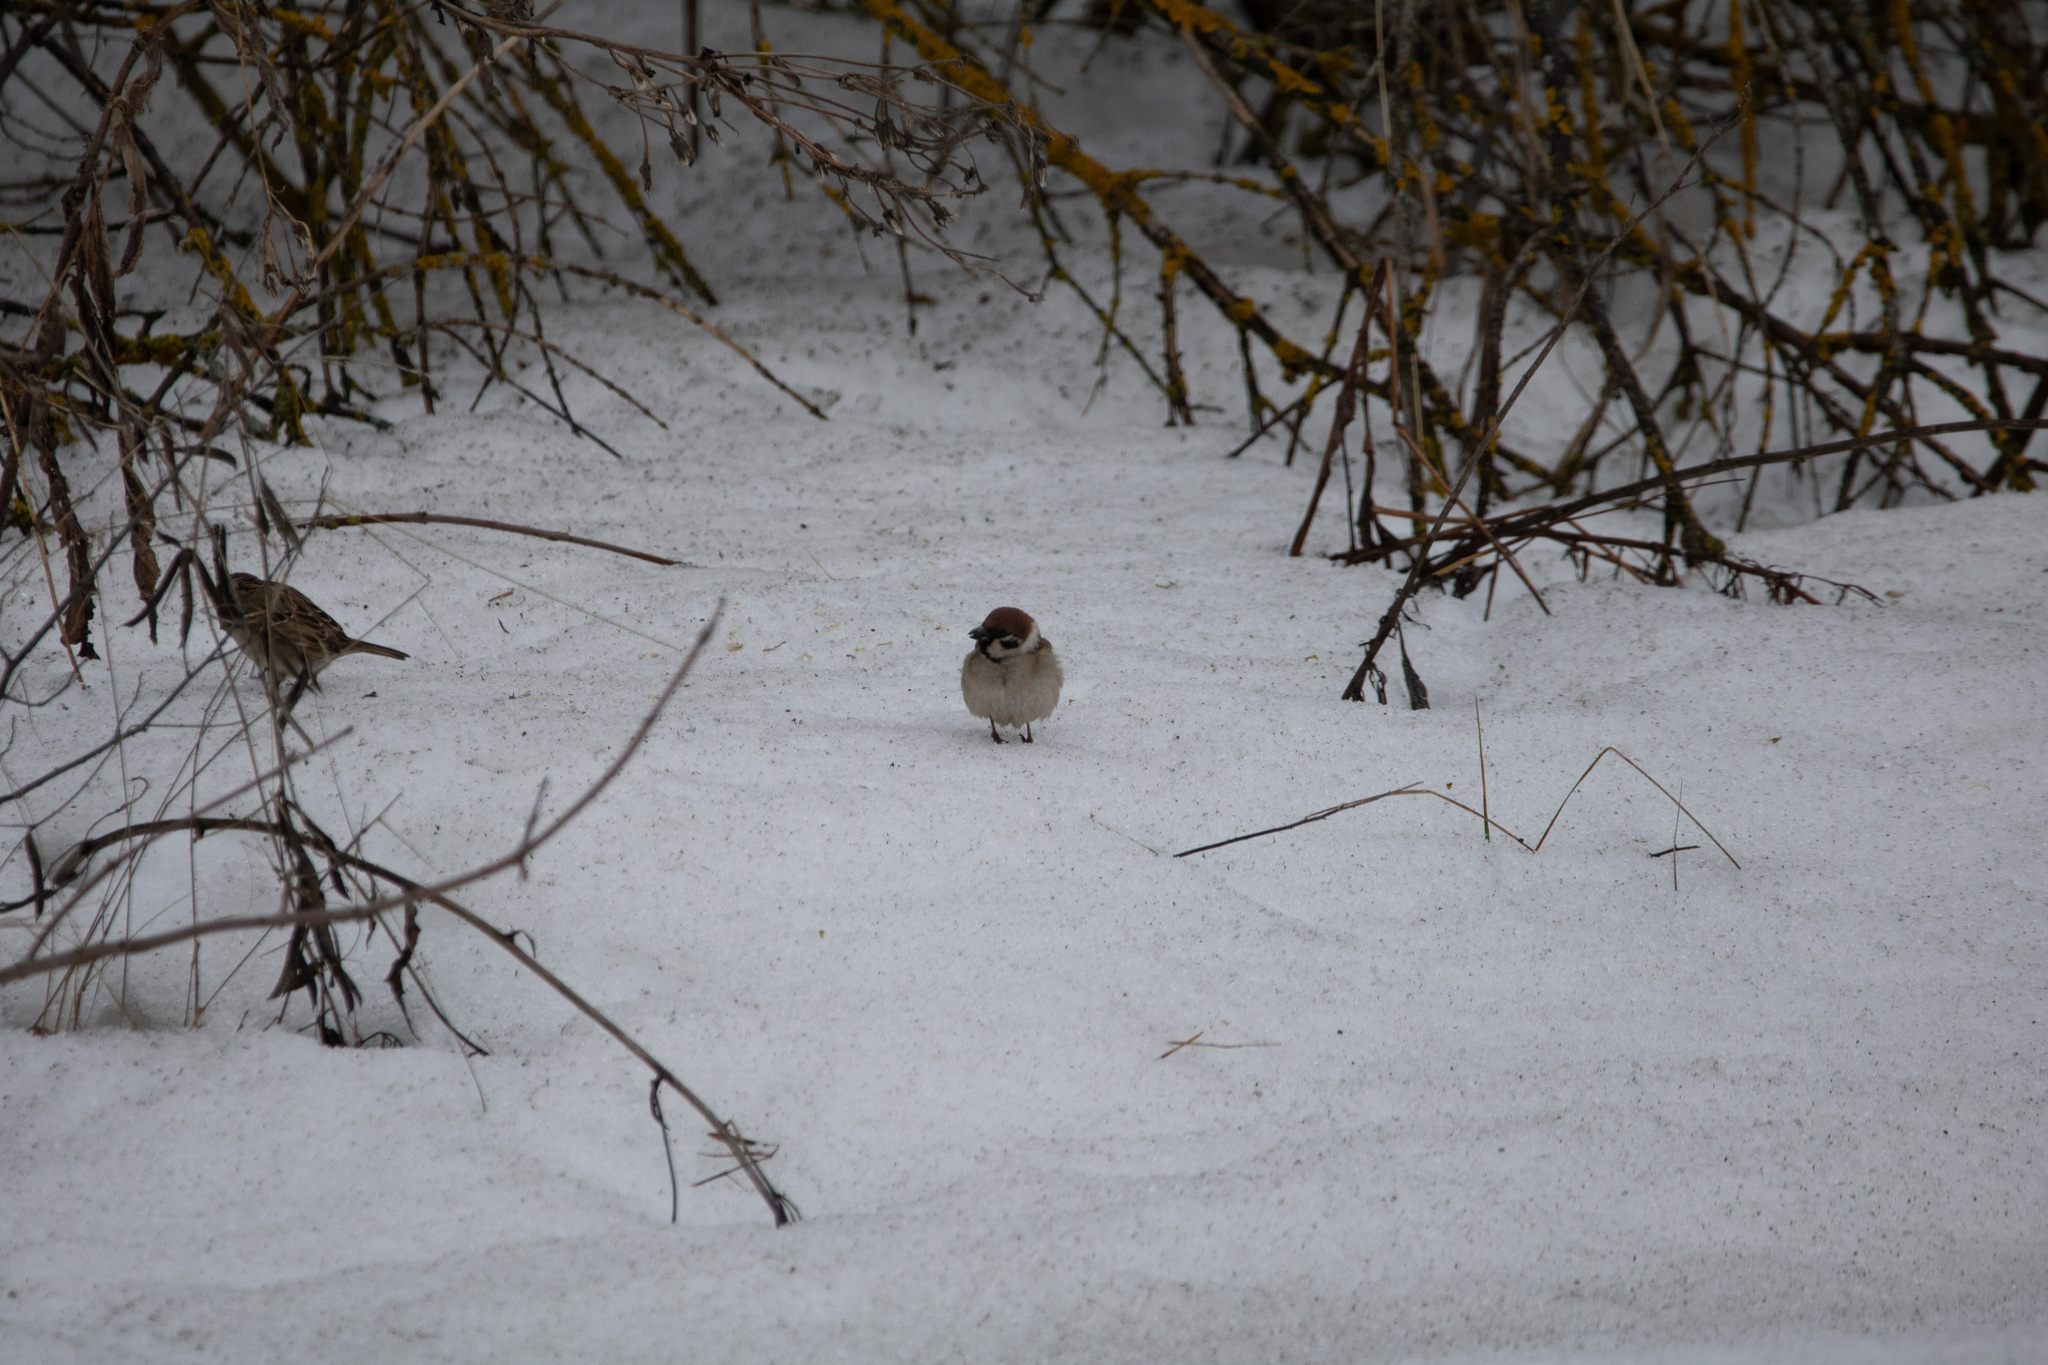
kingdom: Animalia
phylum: Chordata
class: Aves
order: Passeriformes
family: Passeridae
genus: Passer
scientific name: Passer montanus
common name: Eurasian tree sparrow
